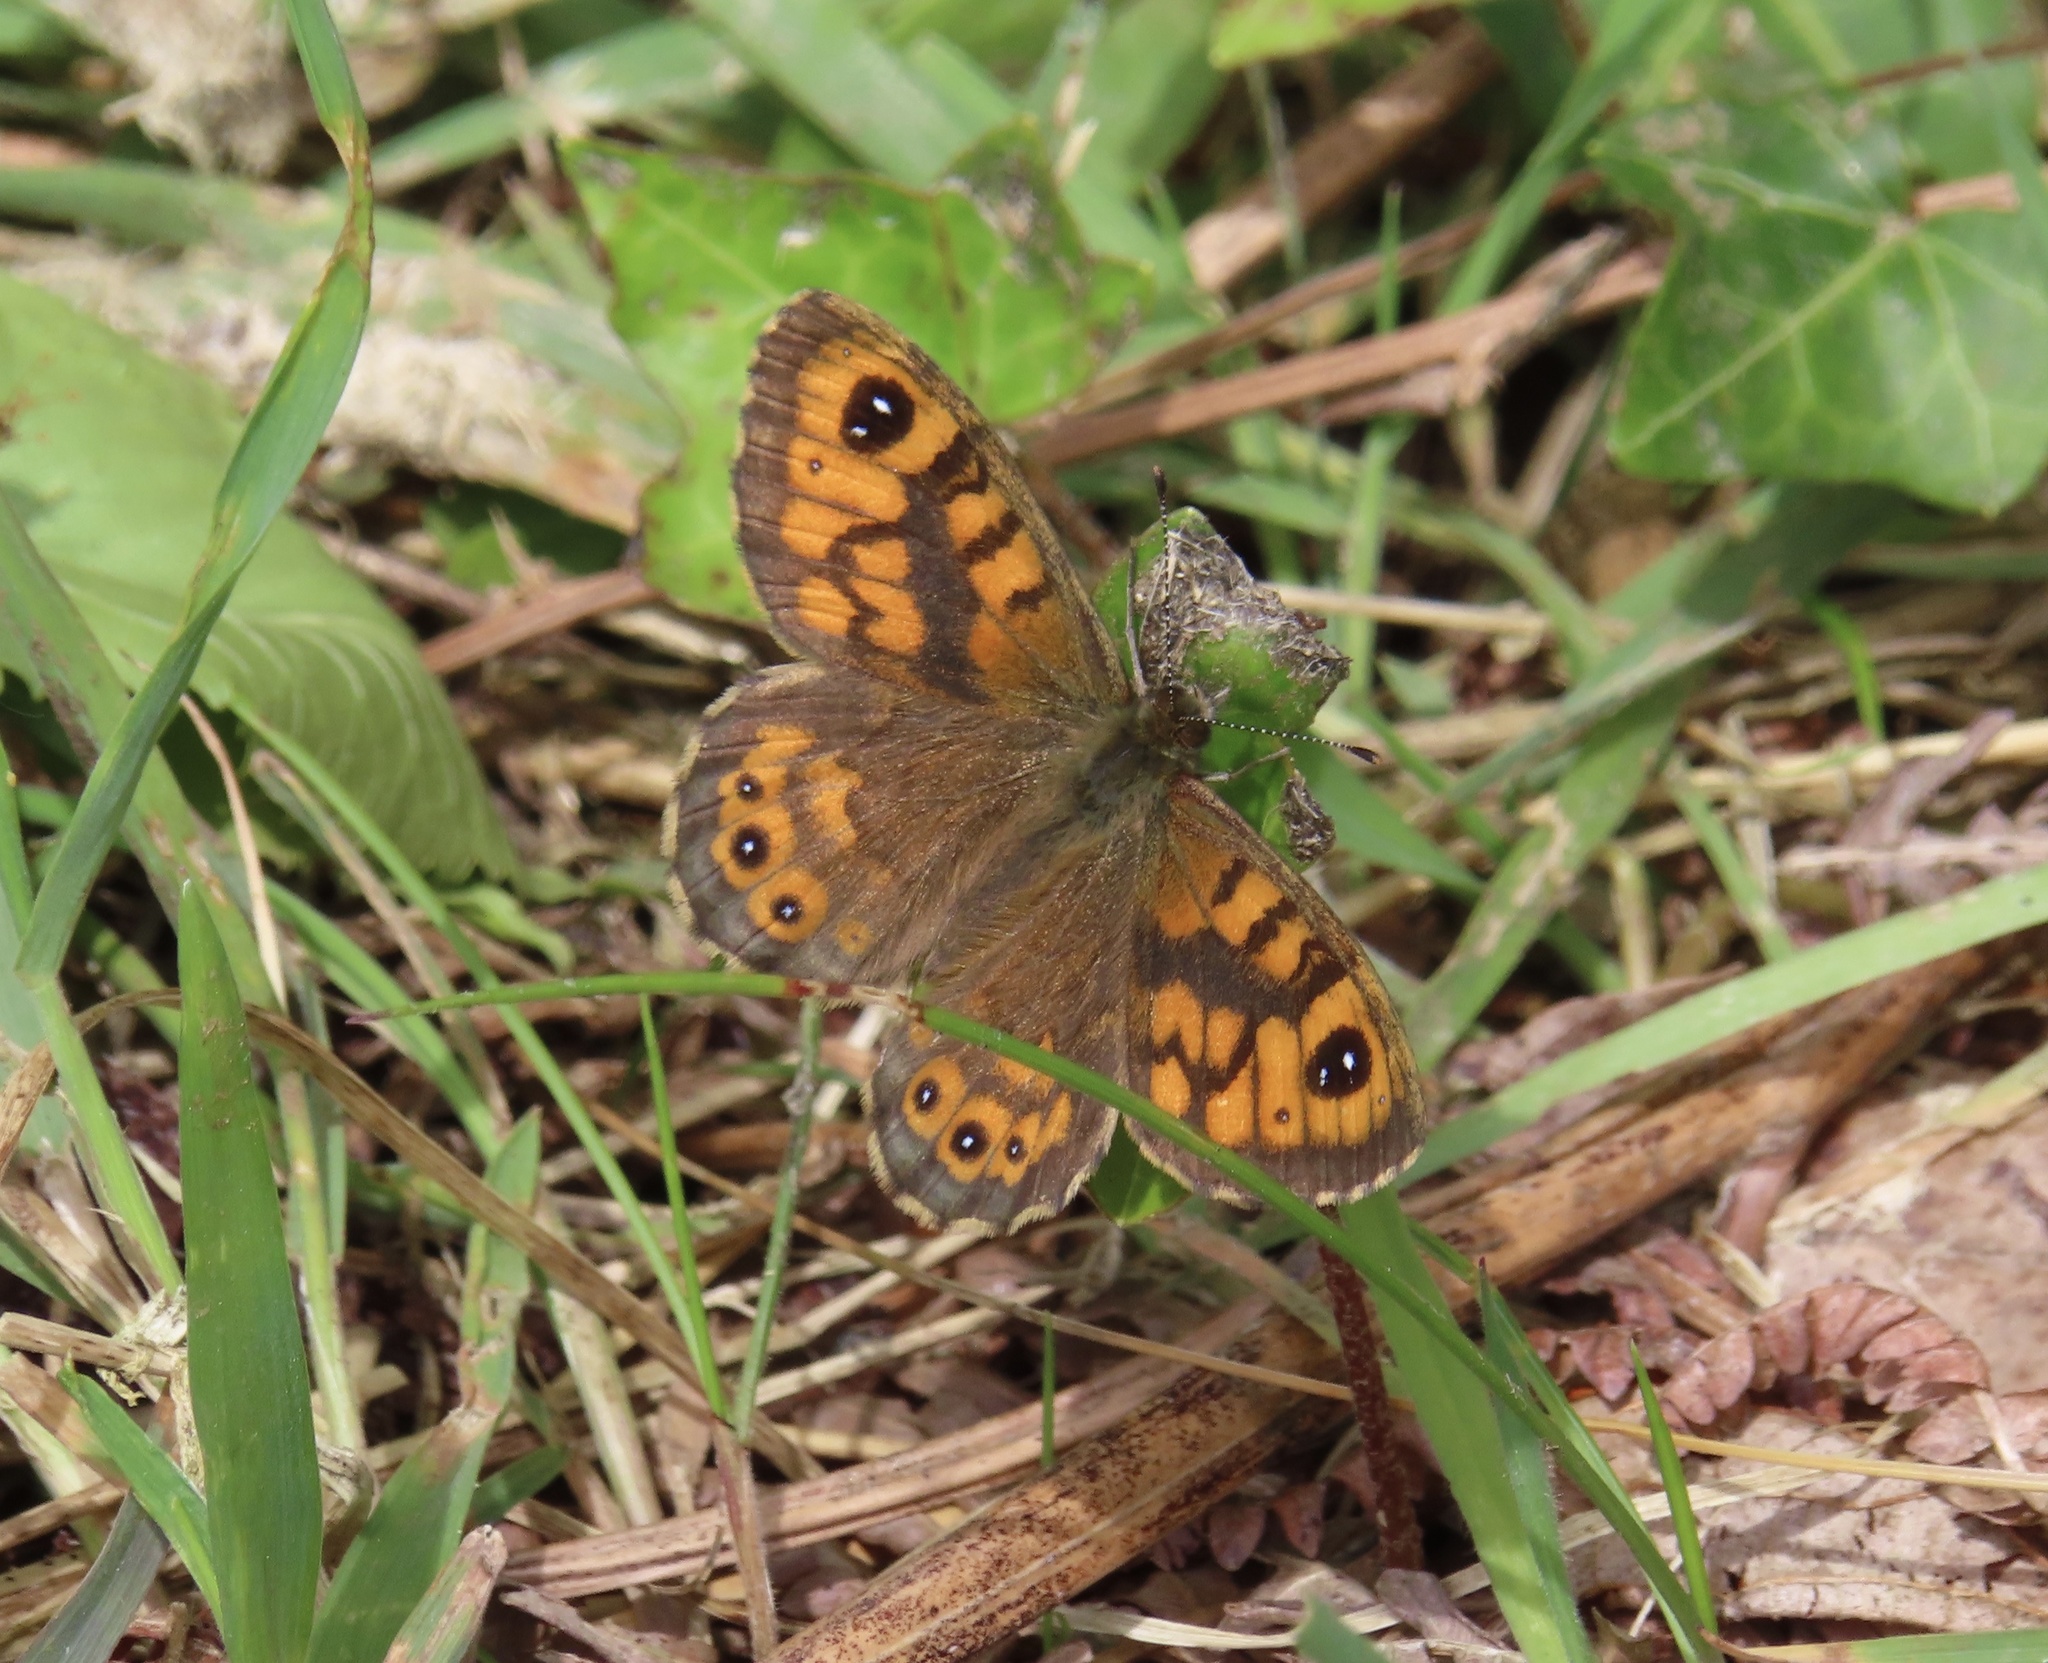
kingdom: Animalia
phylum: Arthropoda
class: Insecta
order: Lepidoptera
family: Nymphalidae
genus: Pararge
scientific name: Pararge Lasiommata megera
